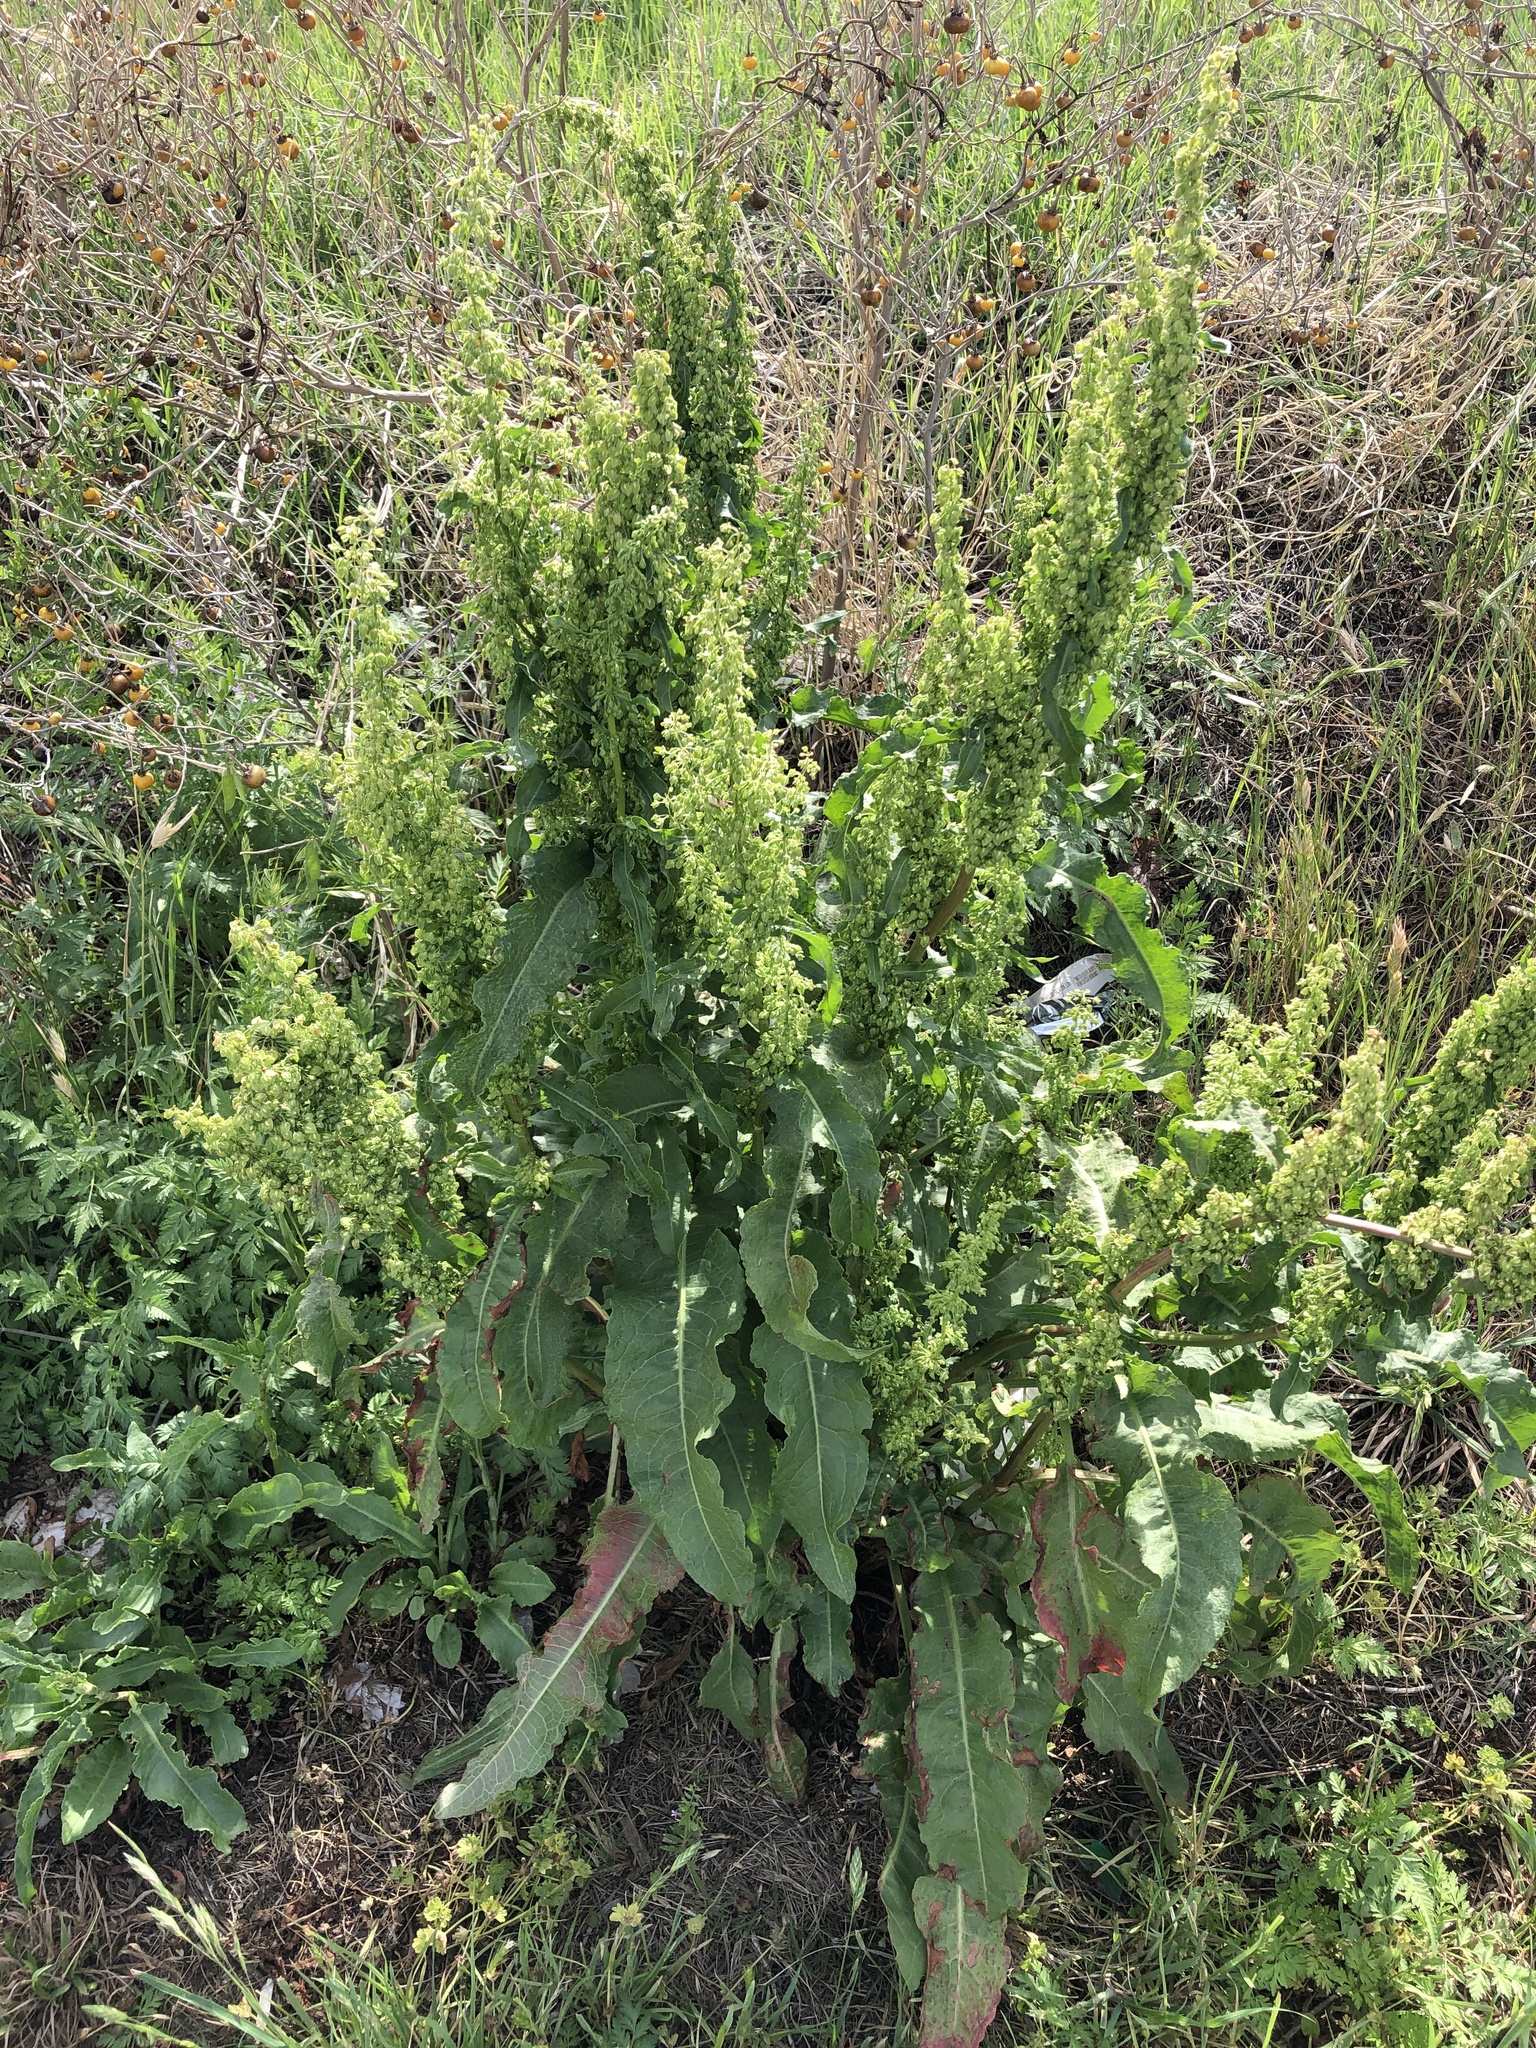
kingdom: Plantae
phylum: Tracheophyta
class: Magnoliopsida
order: Caryophyllales
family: Polygonaceae
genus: Rumex
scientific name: Rumex crispus
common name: Curled dock
